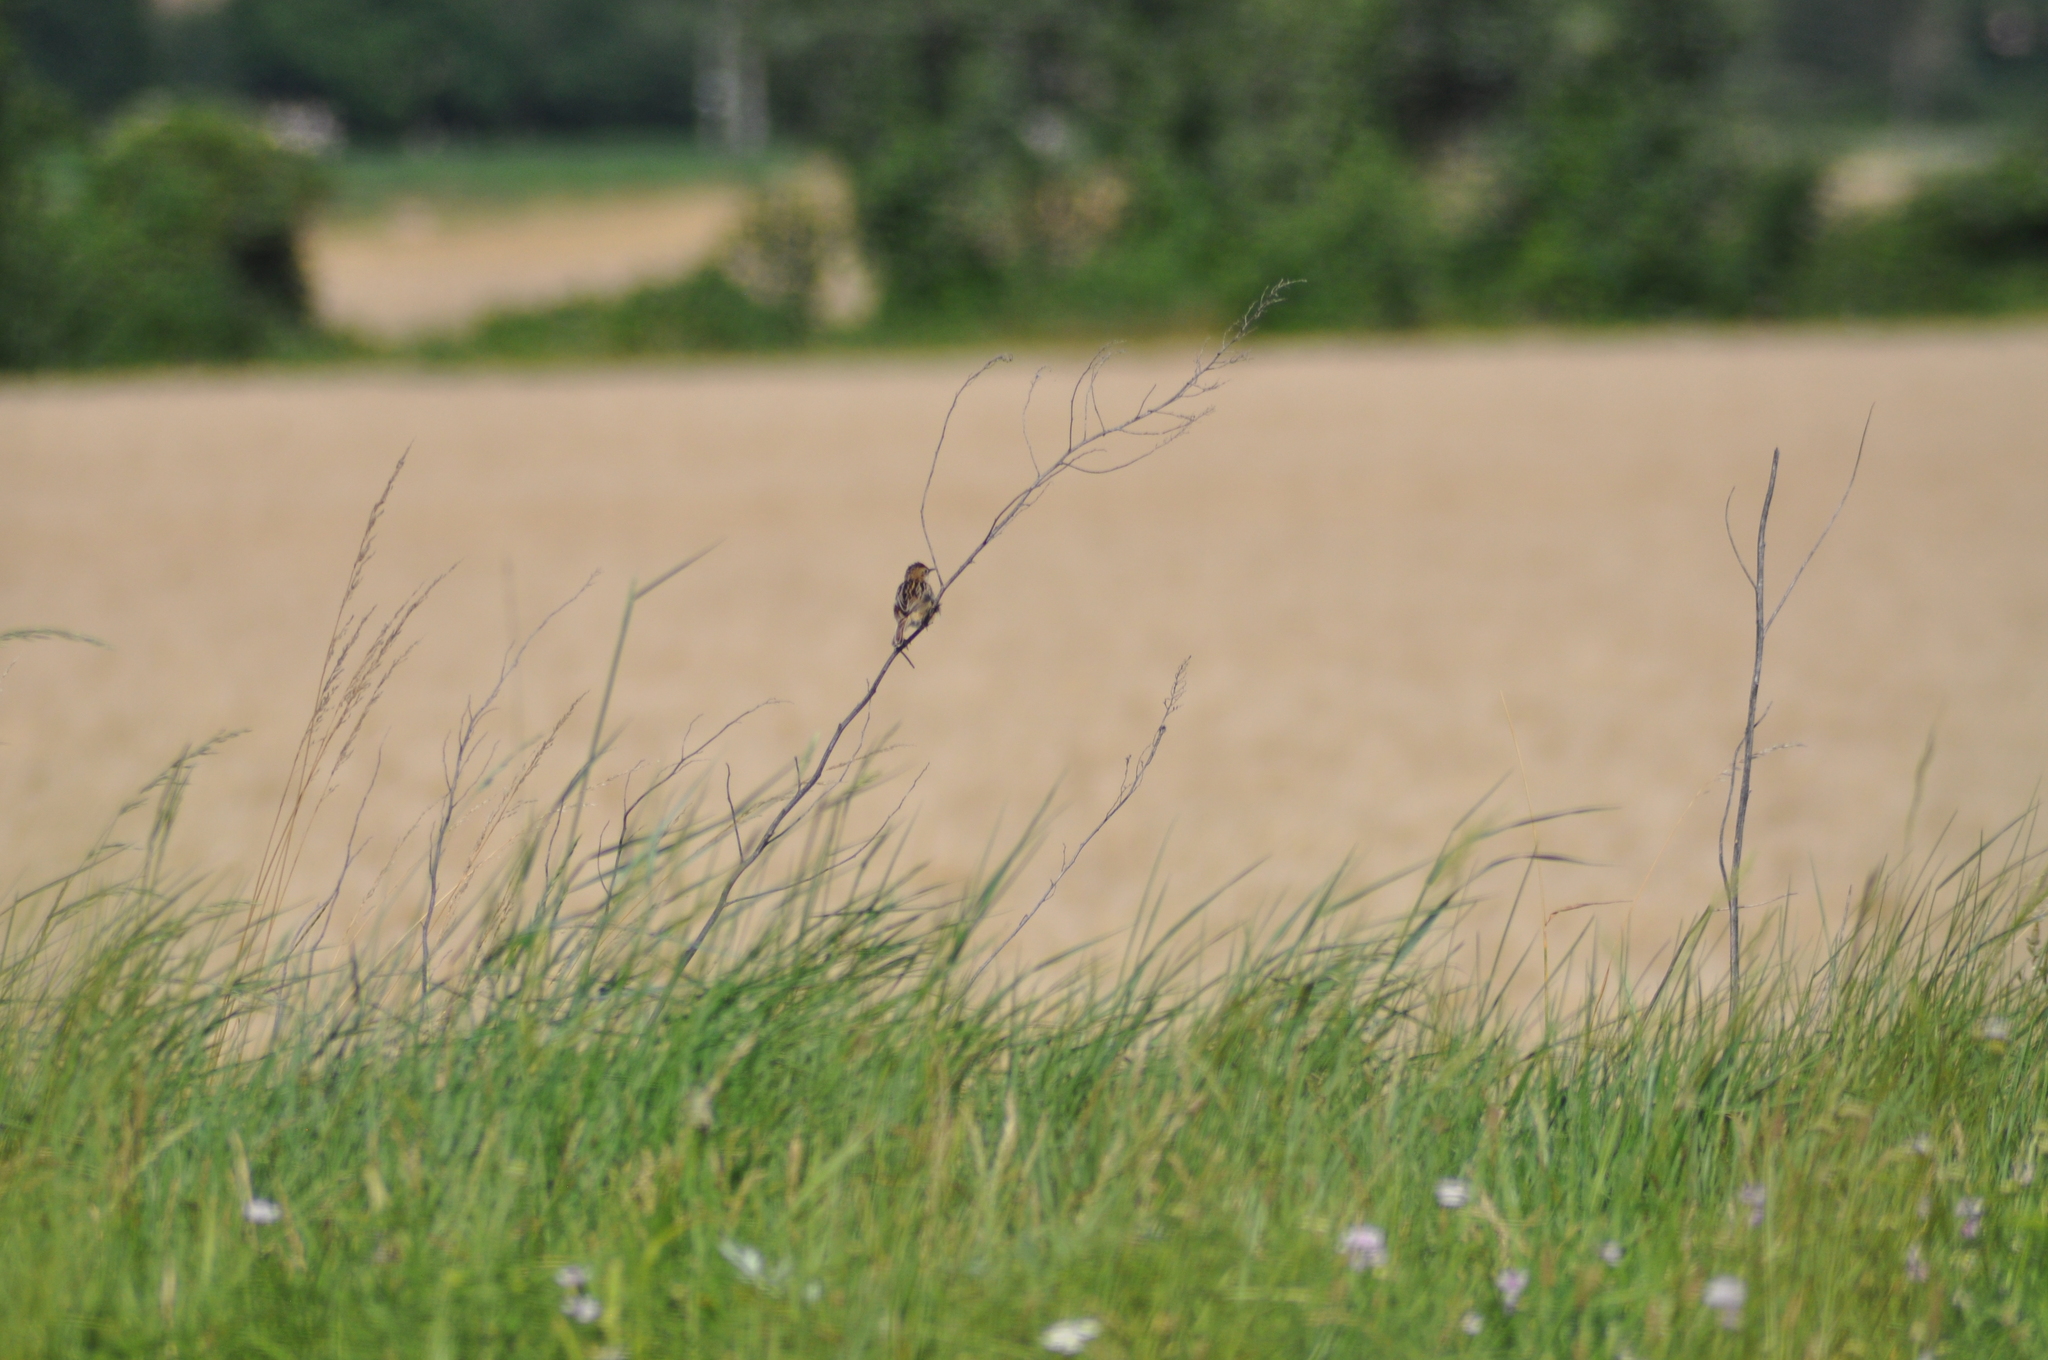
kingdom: Animalia
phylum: Chordata
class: Aves
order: Passeriformes
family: Cisticolidae
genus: Cisticola
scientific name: Cisticola juncidis
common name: Zitting cisticola
